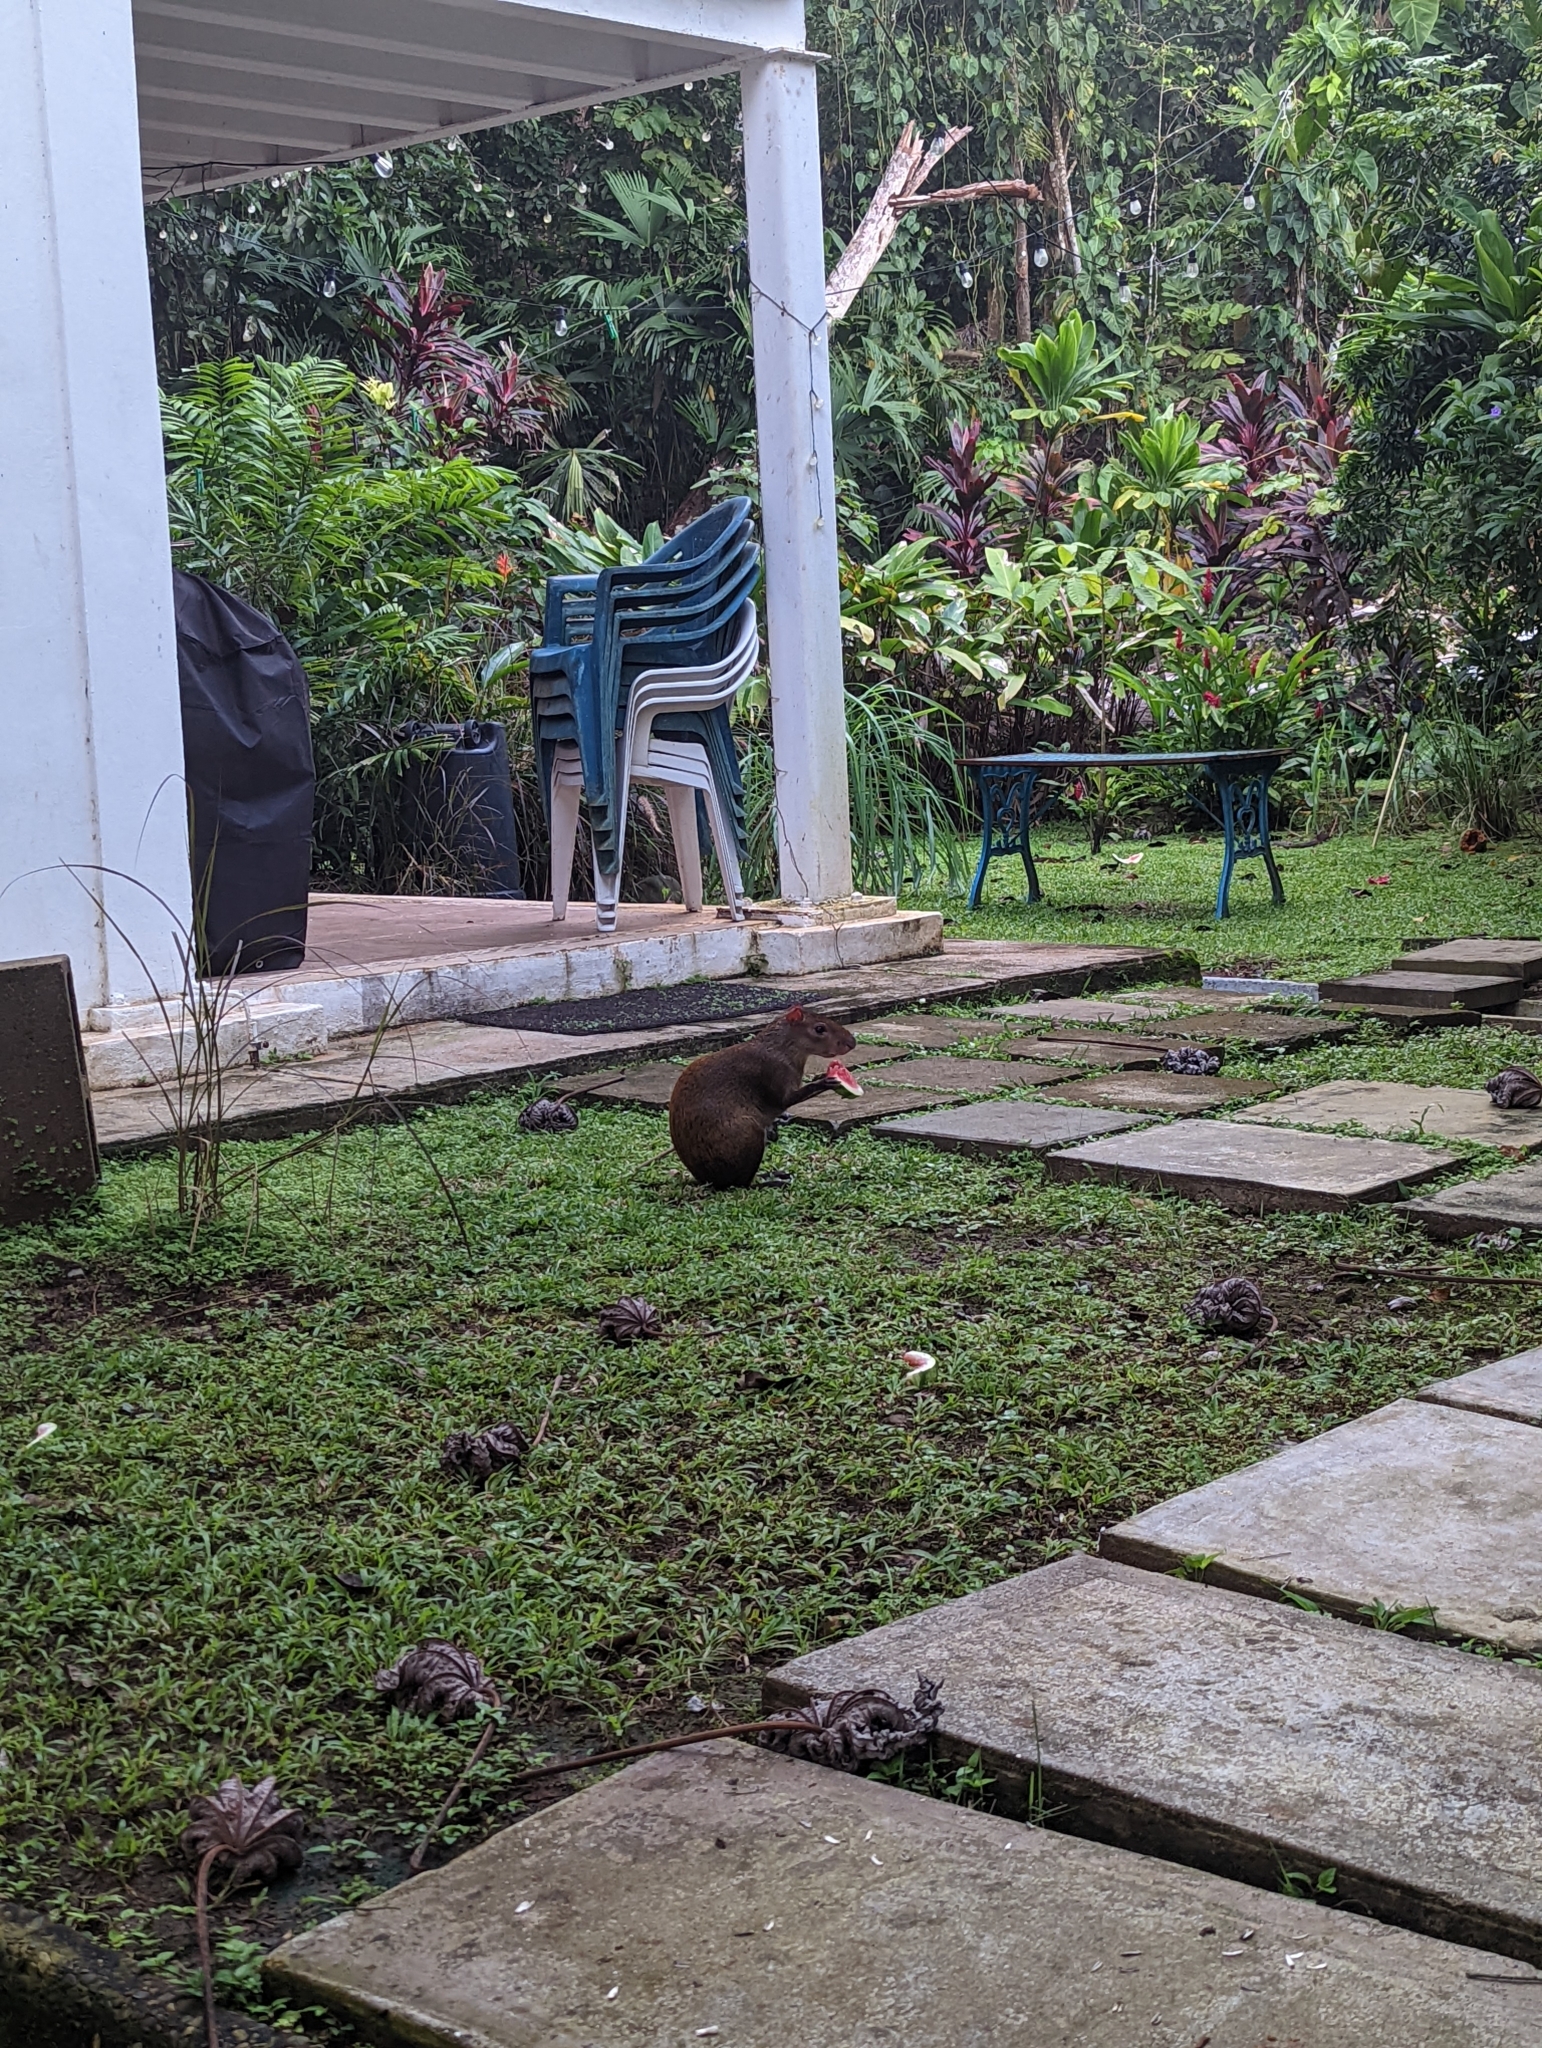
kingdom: Animalia
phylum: Chordata
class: Mammalia
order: Rodentia
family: Dasyproctidae
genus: Dasyprocta
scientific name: Dasyprocta punctata
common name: Central american agouti
